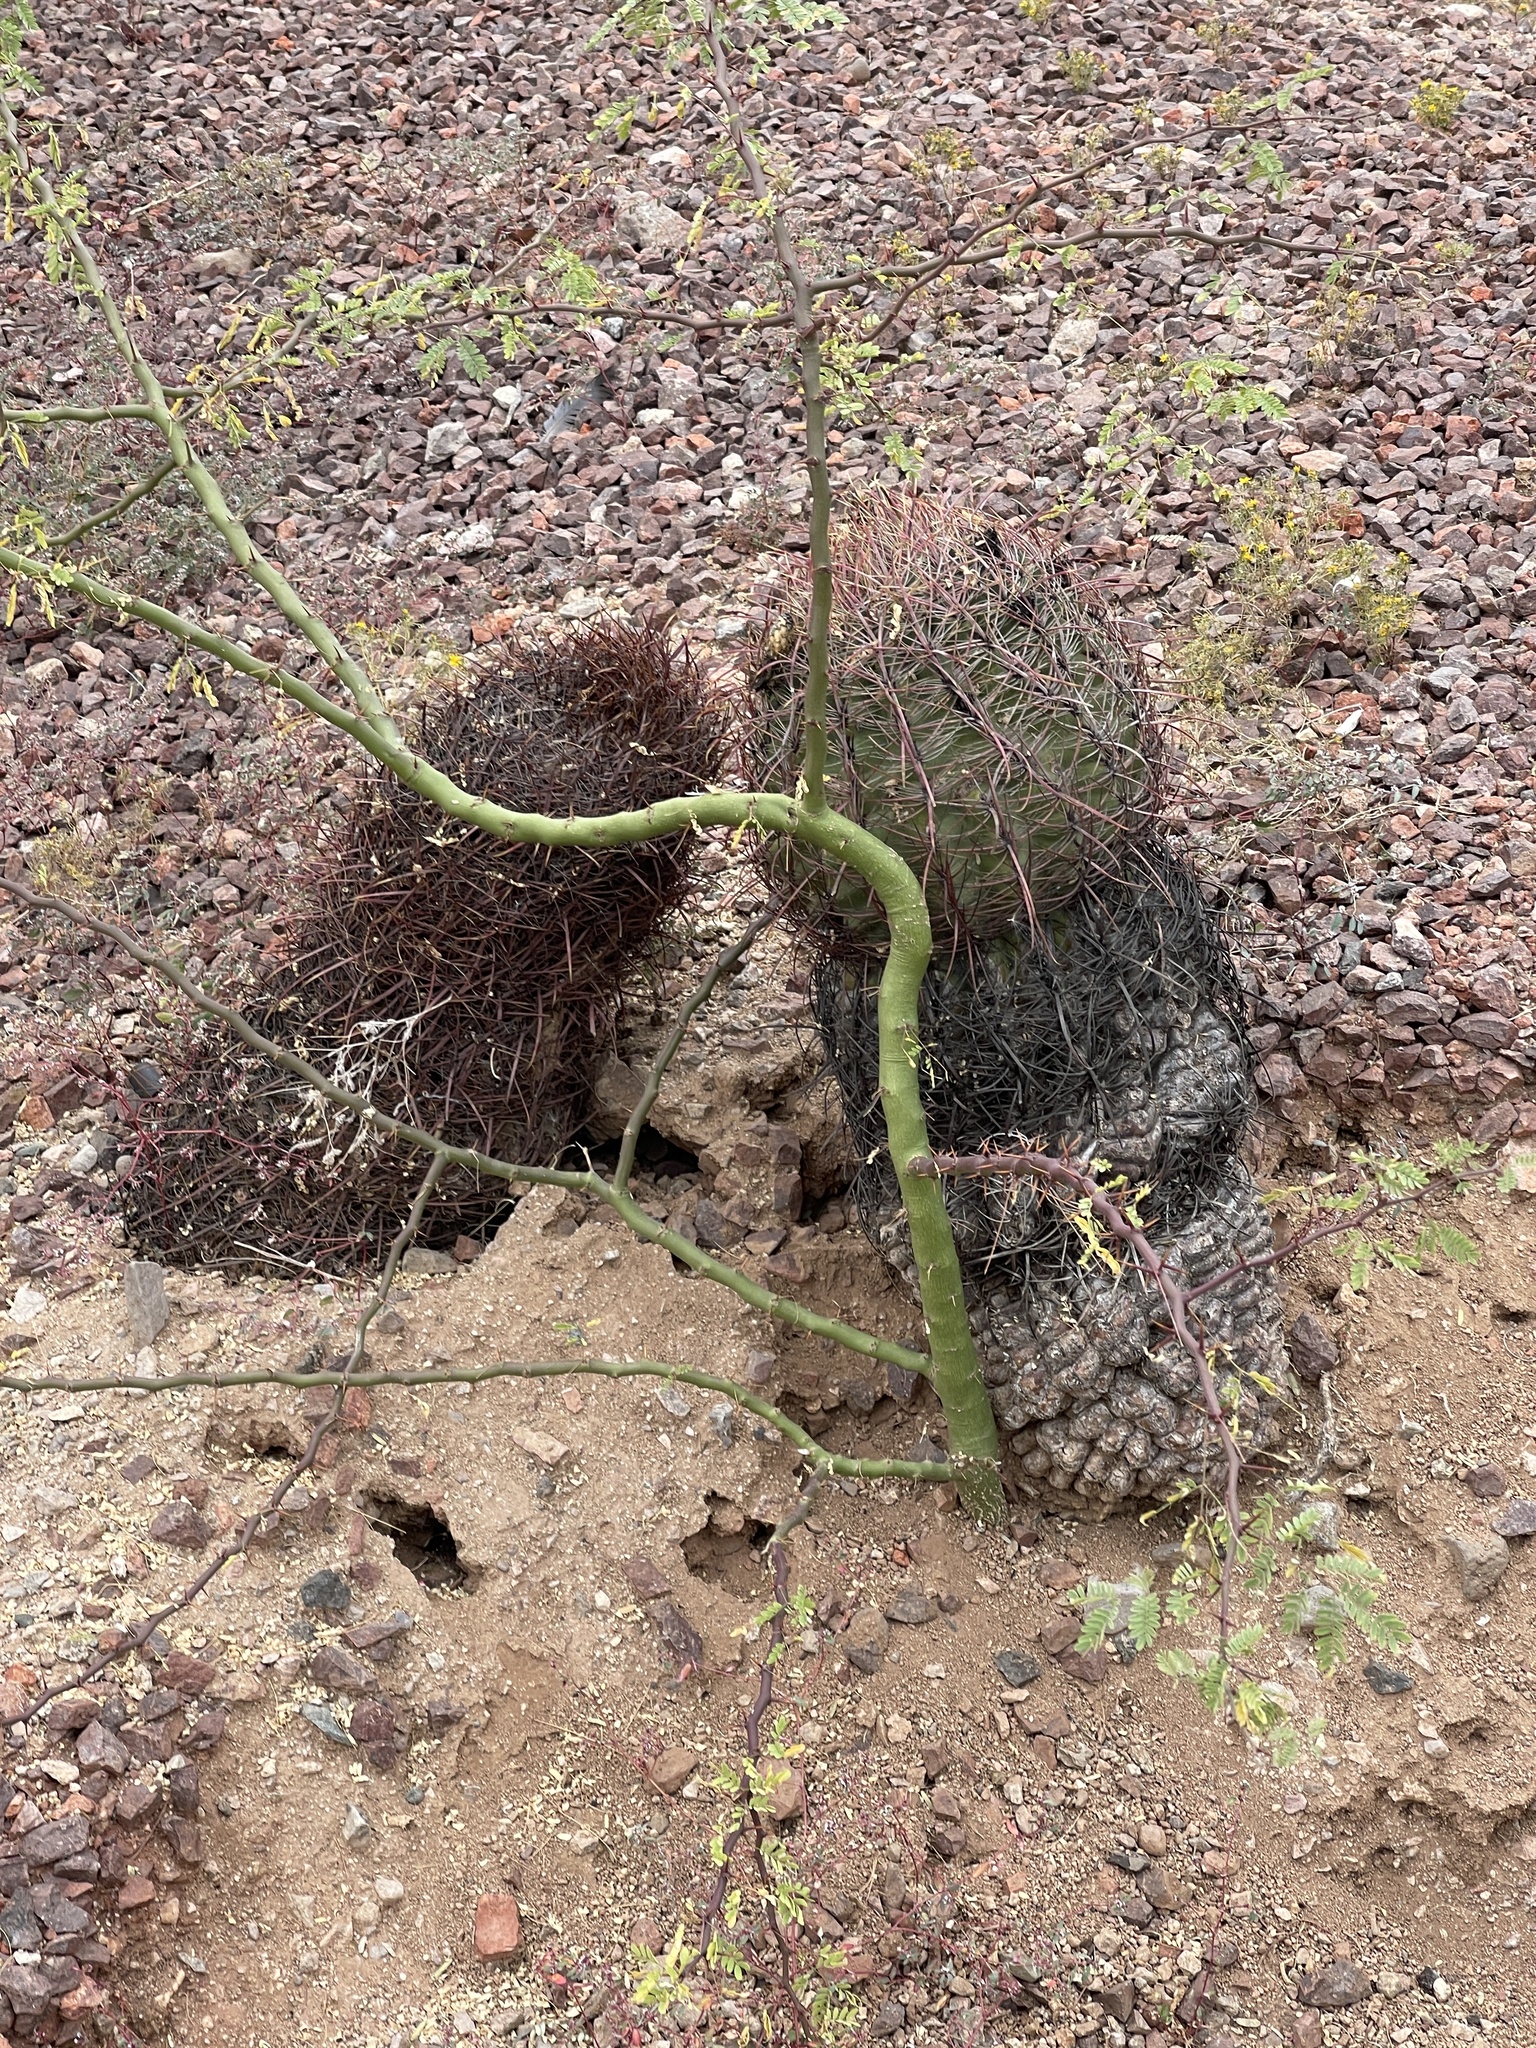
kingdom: Plantae
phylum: Tracheophyta
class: Magnoliopsida
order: Caryophyllales
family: Cactaceae
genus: Ferocactus
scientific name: Ferocactus wislizeni
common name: Candy barrel cactus
